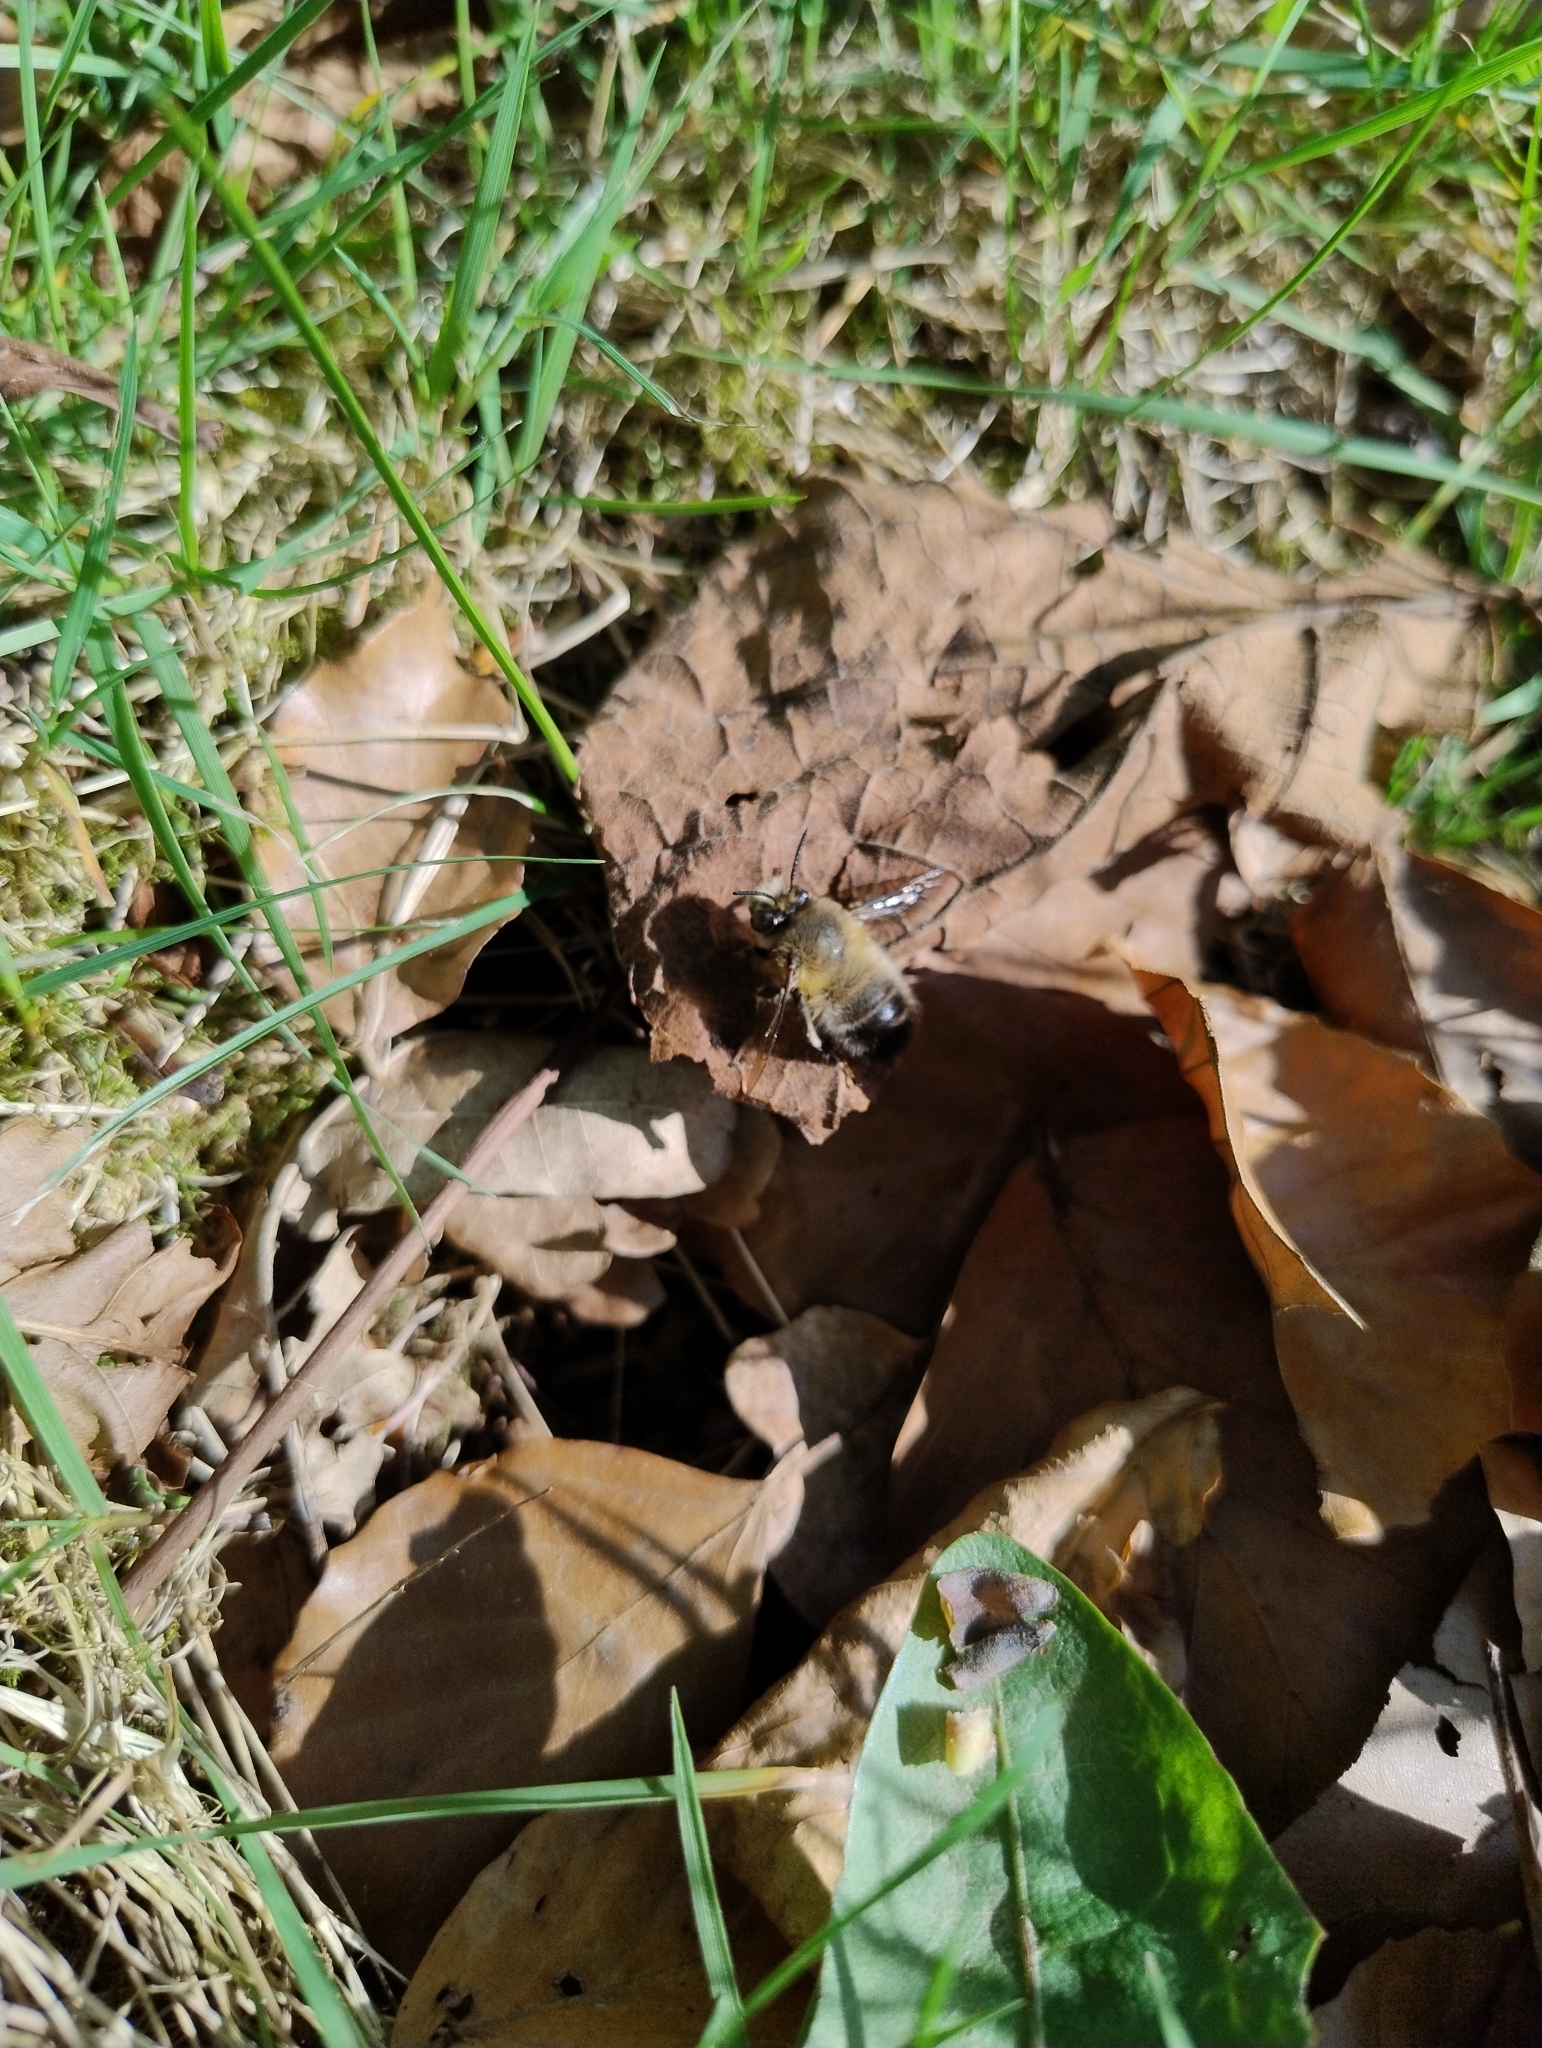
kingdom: Animalia
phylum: Arthropoda
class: Insecta
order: Hymenoptera
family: Apidae
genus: Anthophora
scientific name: Anthophora plumipes
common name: Hairy-footed flower bee
